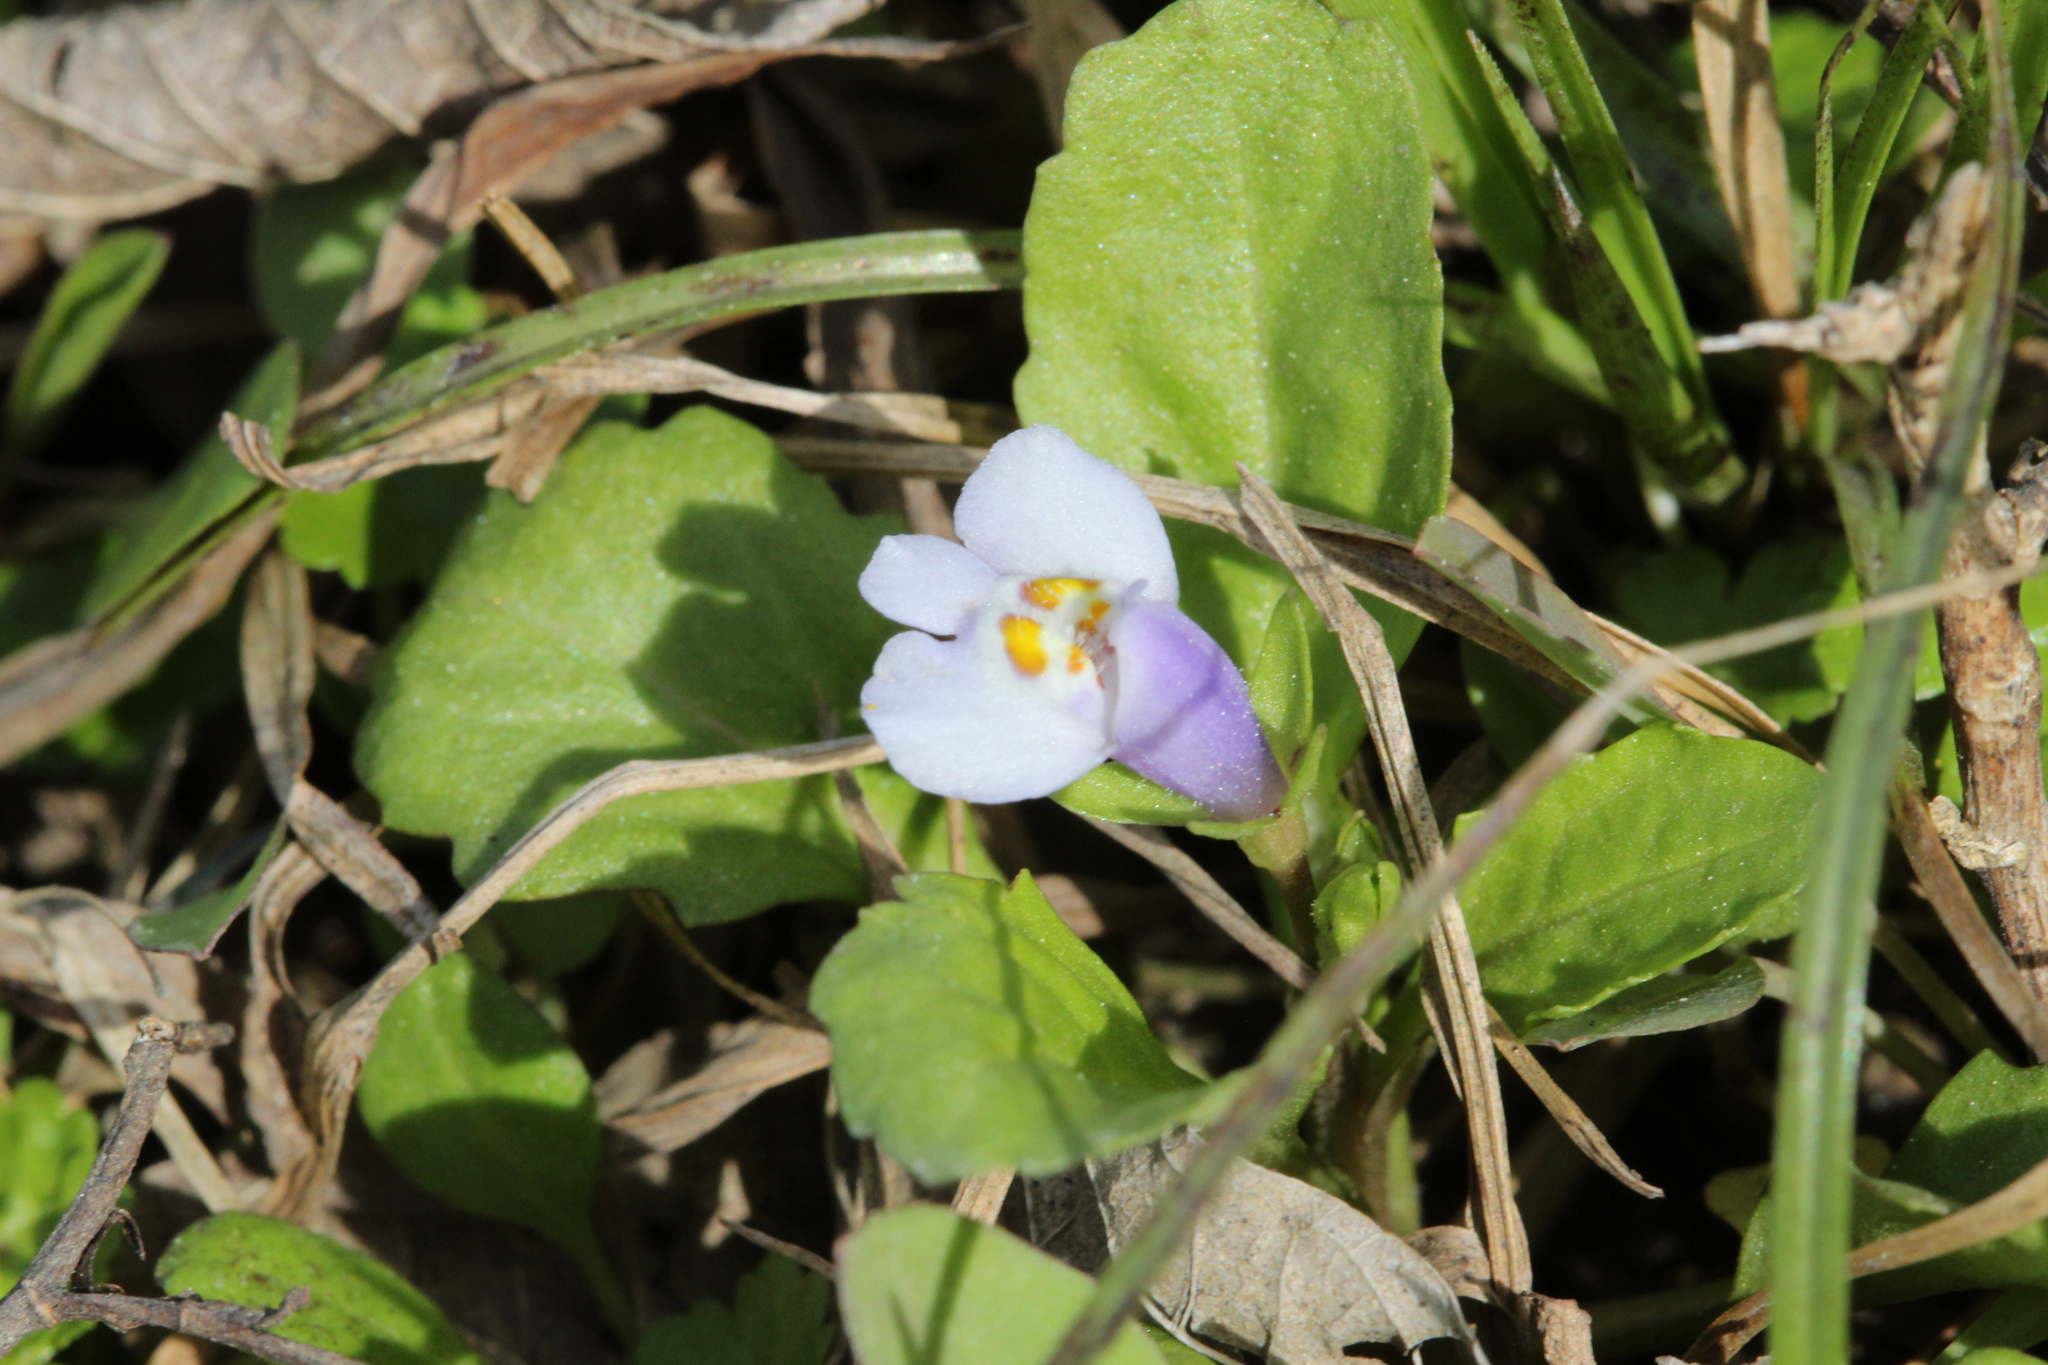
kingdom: Plantae
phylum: Tracheophyta
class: Magnoliopsida
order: Lamiales
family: Mazaceae
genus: Mazus
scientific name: Mazus pumilus
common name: Japanese mazus
